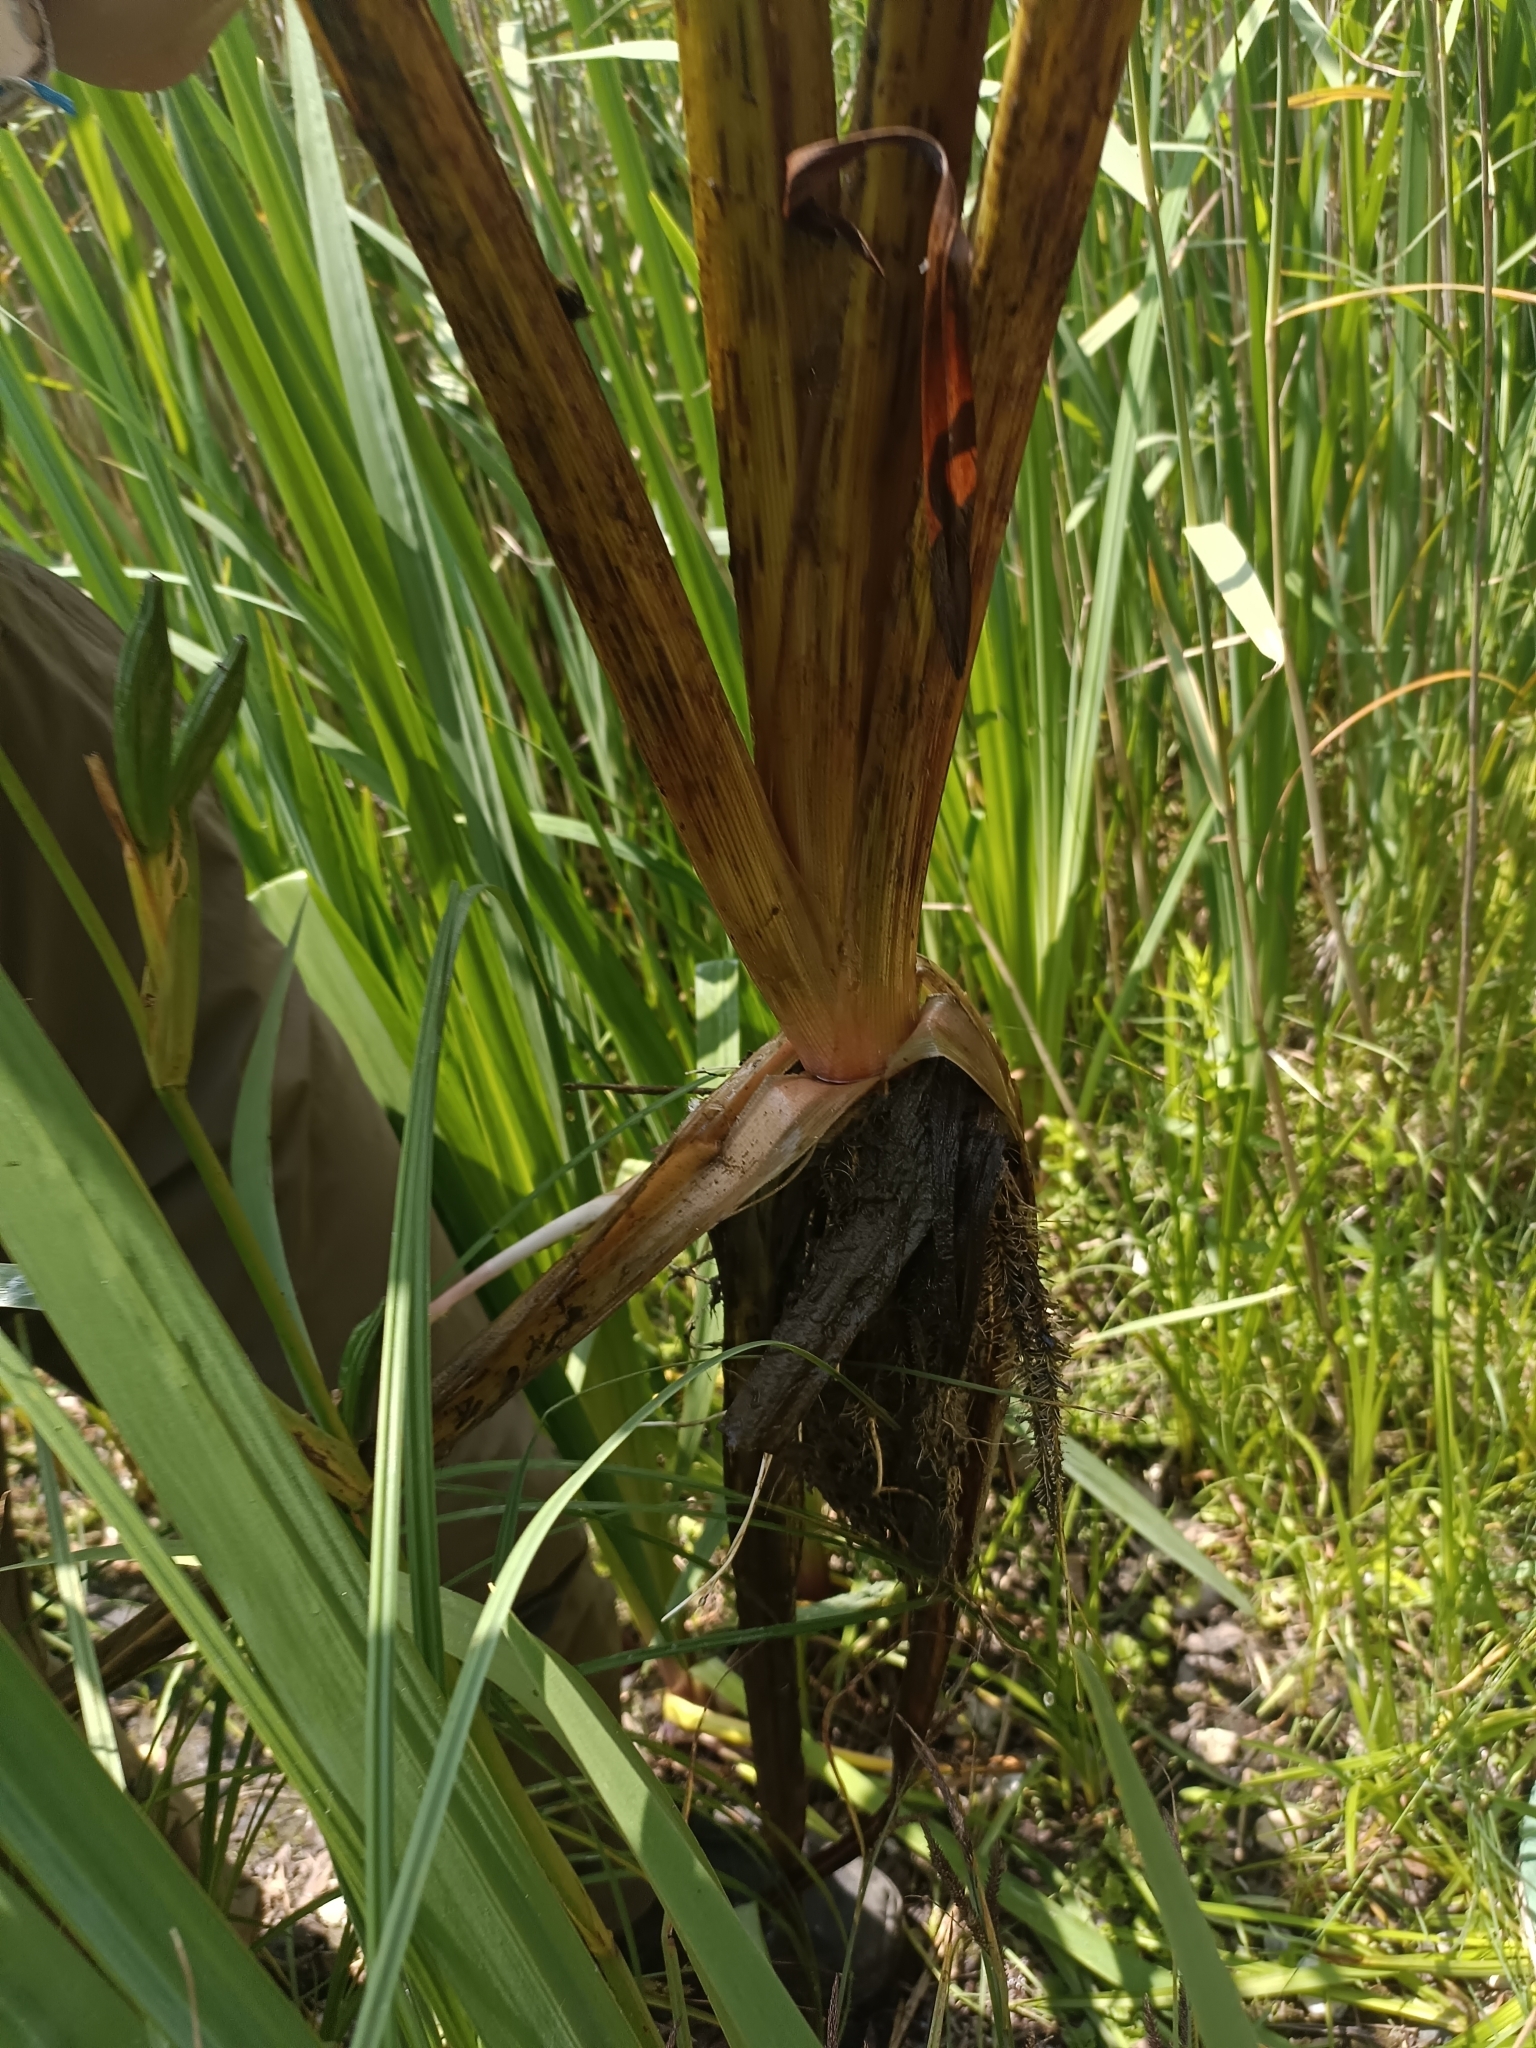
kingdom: Plantae
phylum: Tracheophyta
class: Liliopsida
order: Poales
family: Typhaceae
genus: Sparganium
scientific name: Sparganium erectum
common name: Branched bur-reed
